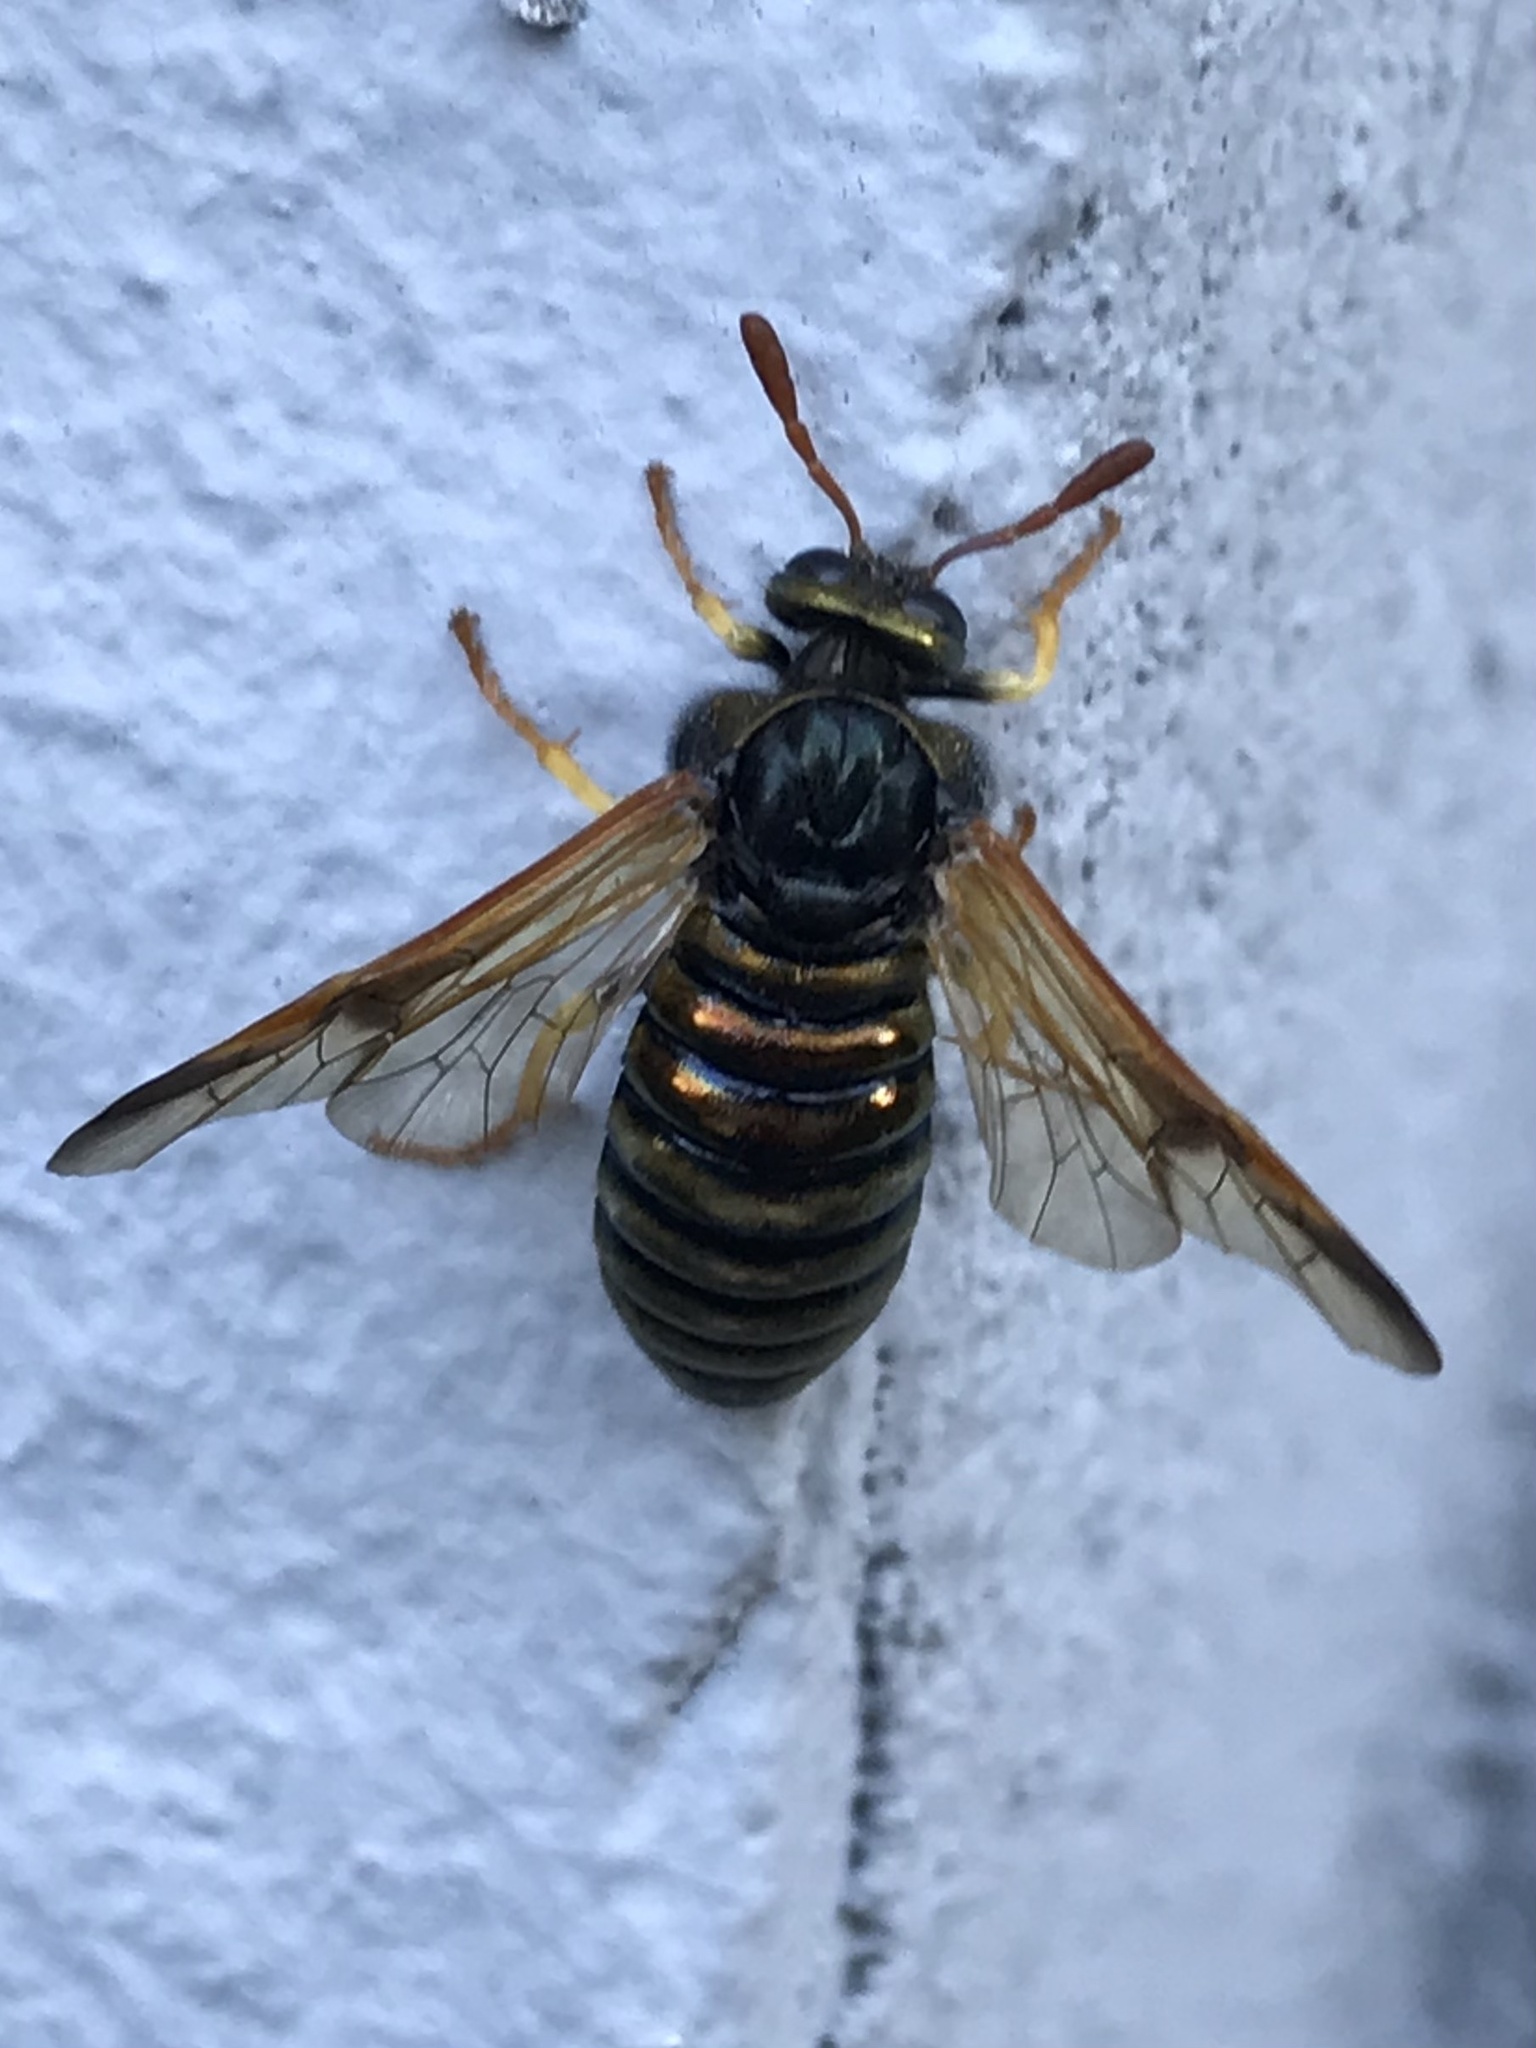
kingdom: Animalia
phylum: Arthropoda
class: Insecta
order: Hymenoptera
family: Cimbicidae
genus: Abia
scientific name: Abia nitens
